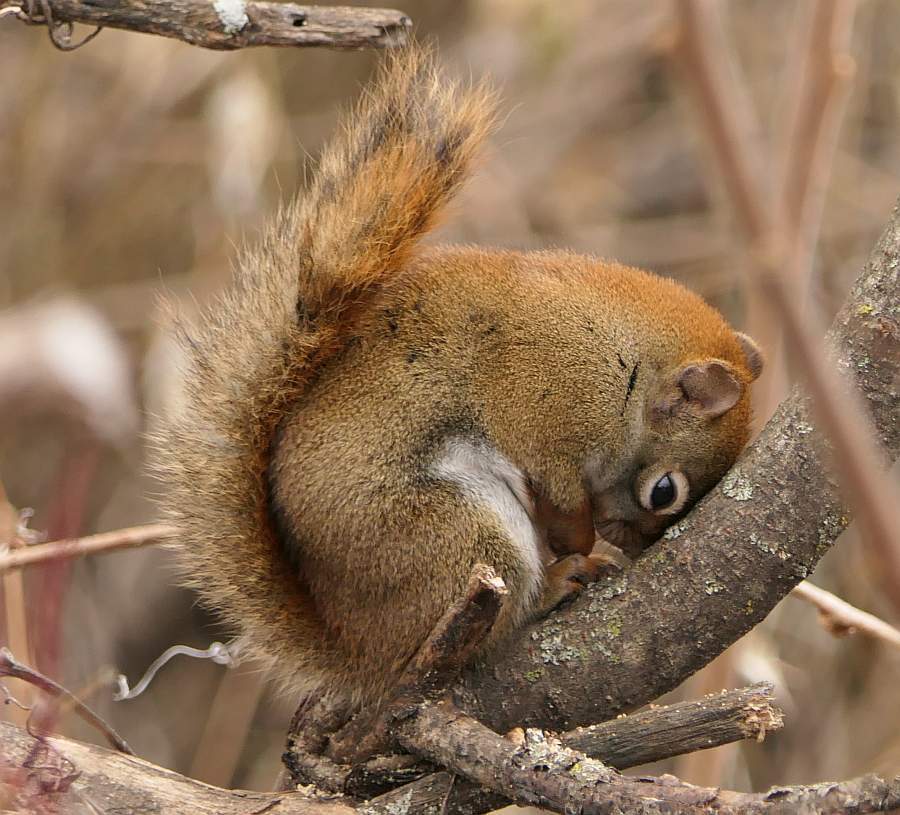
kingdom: Animalia
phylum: Chordata
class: Mammalia
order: Rodentia
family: Sciuridae
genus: Tamiasciurus
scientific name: Tamiasciurus hudsonicus
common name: Red squirrel
